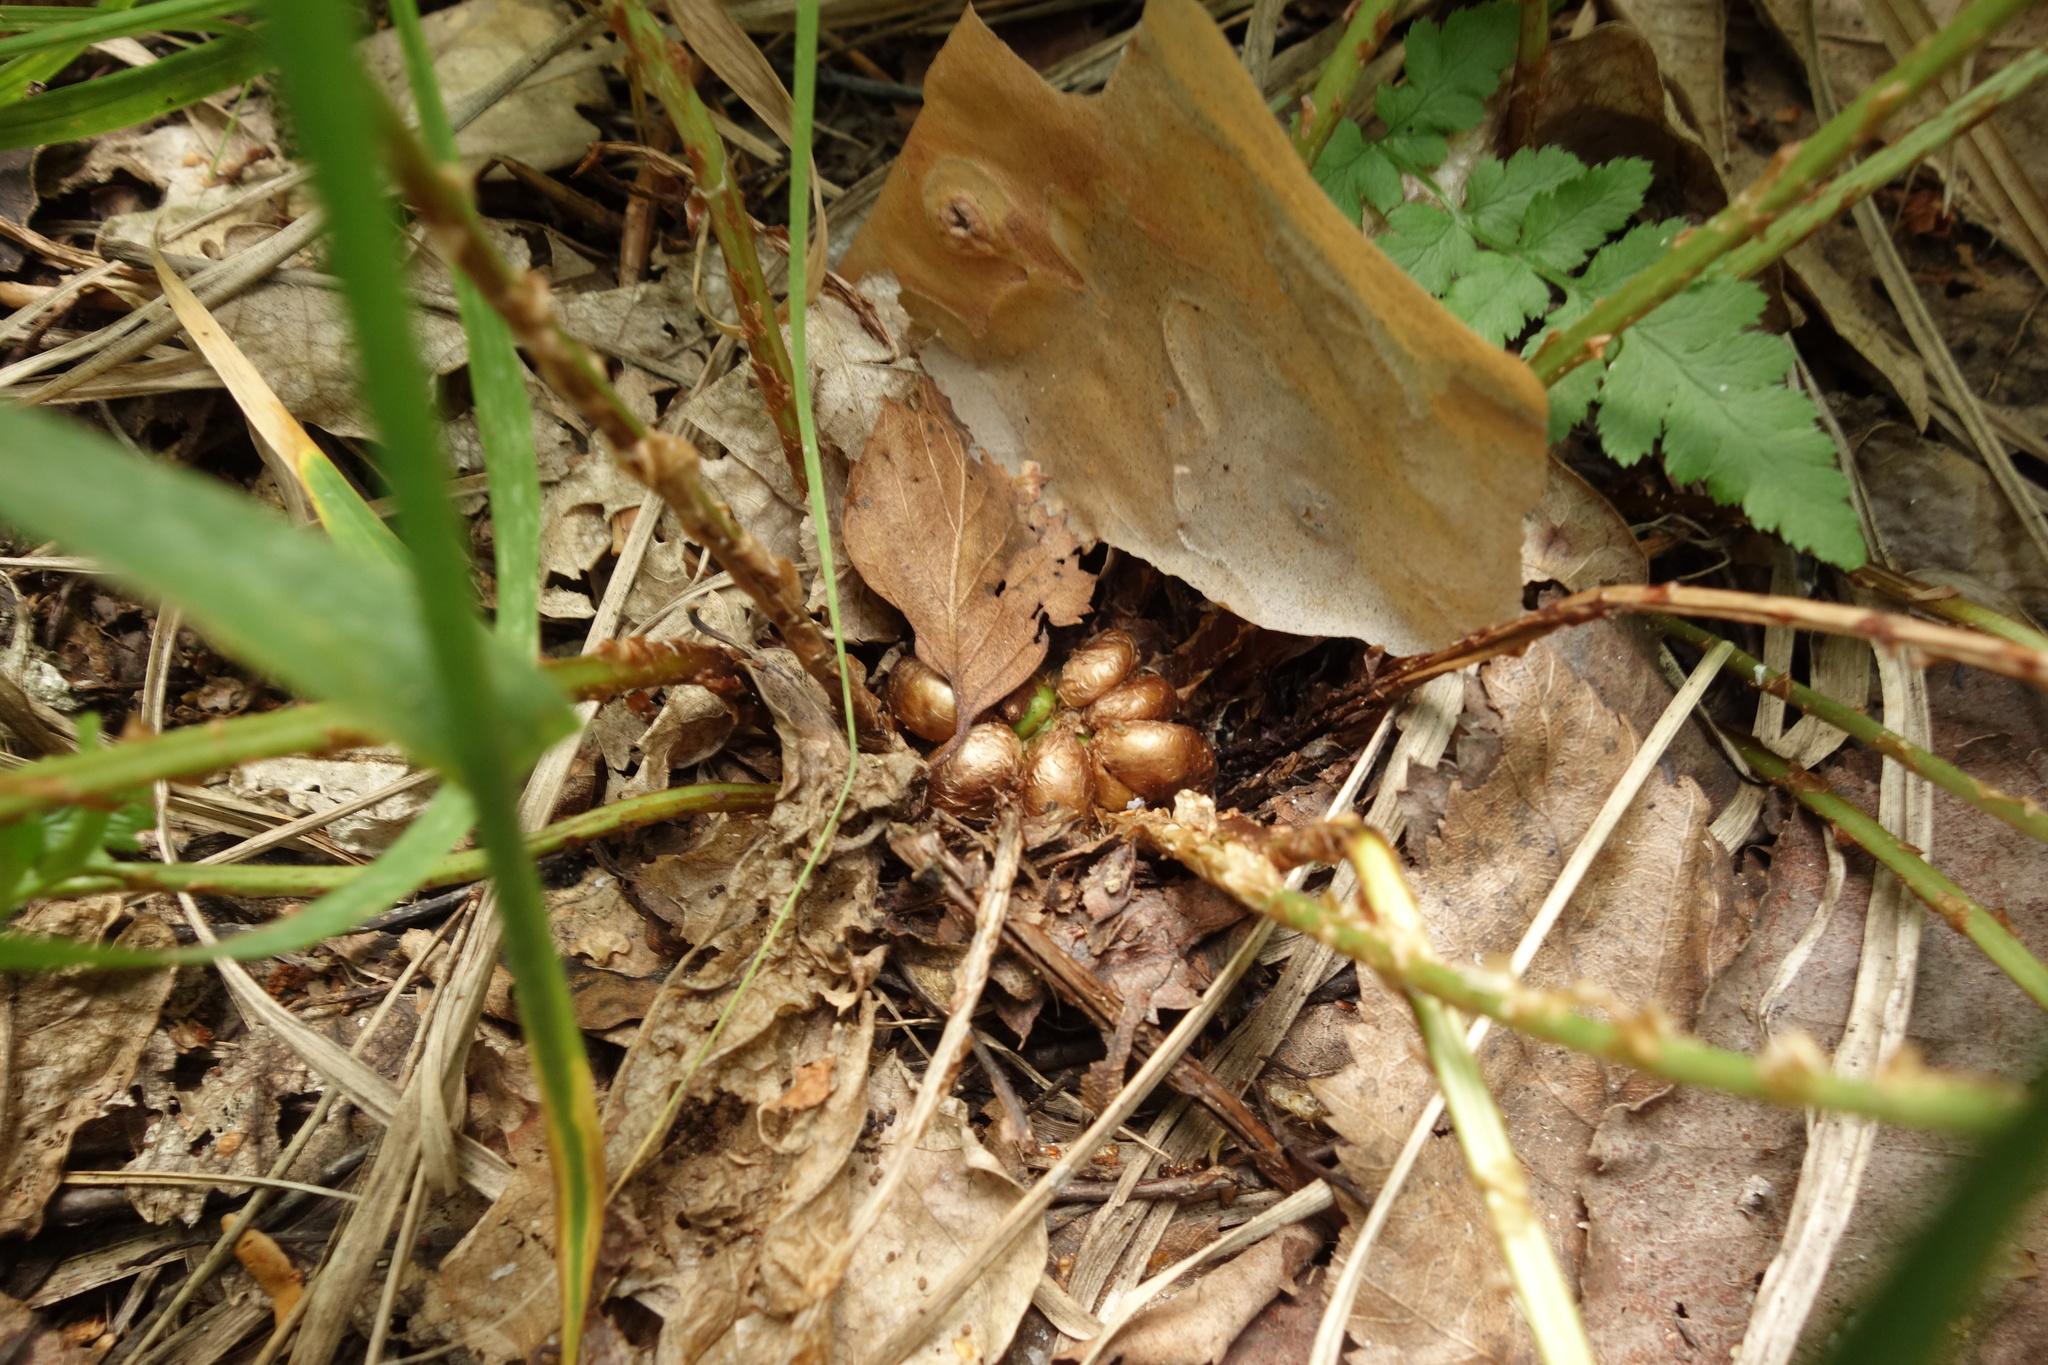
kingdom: Plantae
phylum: Tracheophyta
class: Polypodiopsida
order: Polypodiales
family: Dryopteridaceae
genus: Dryopteris
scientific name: Dryopteris cristata
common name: Crested wood fern
